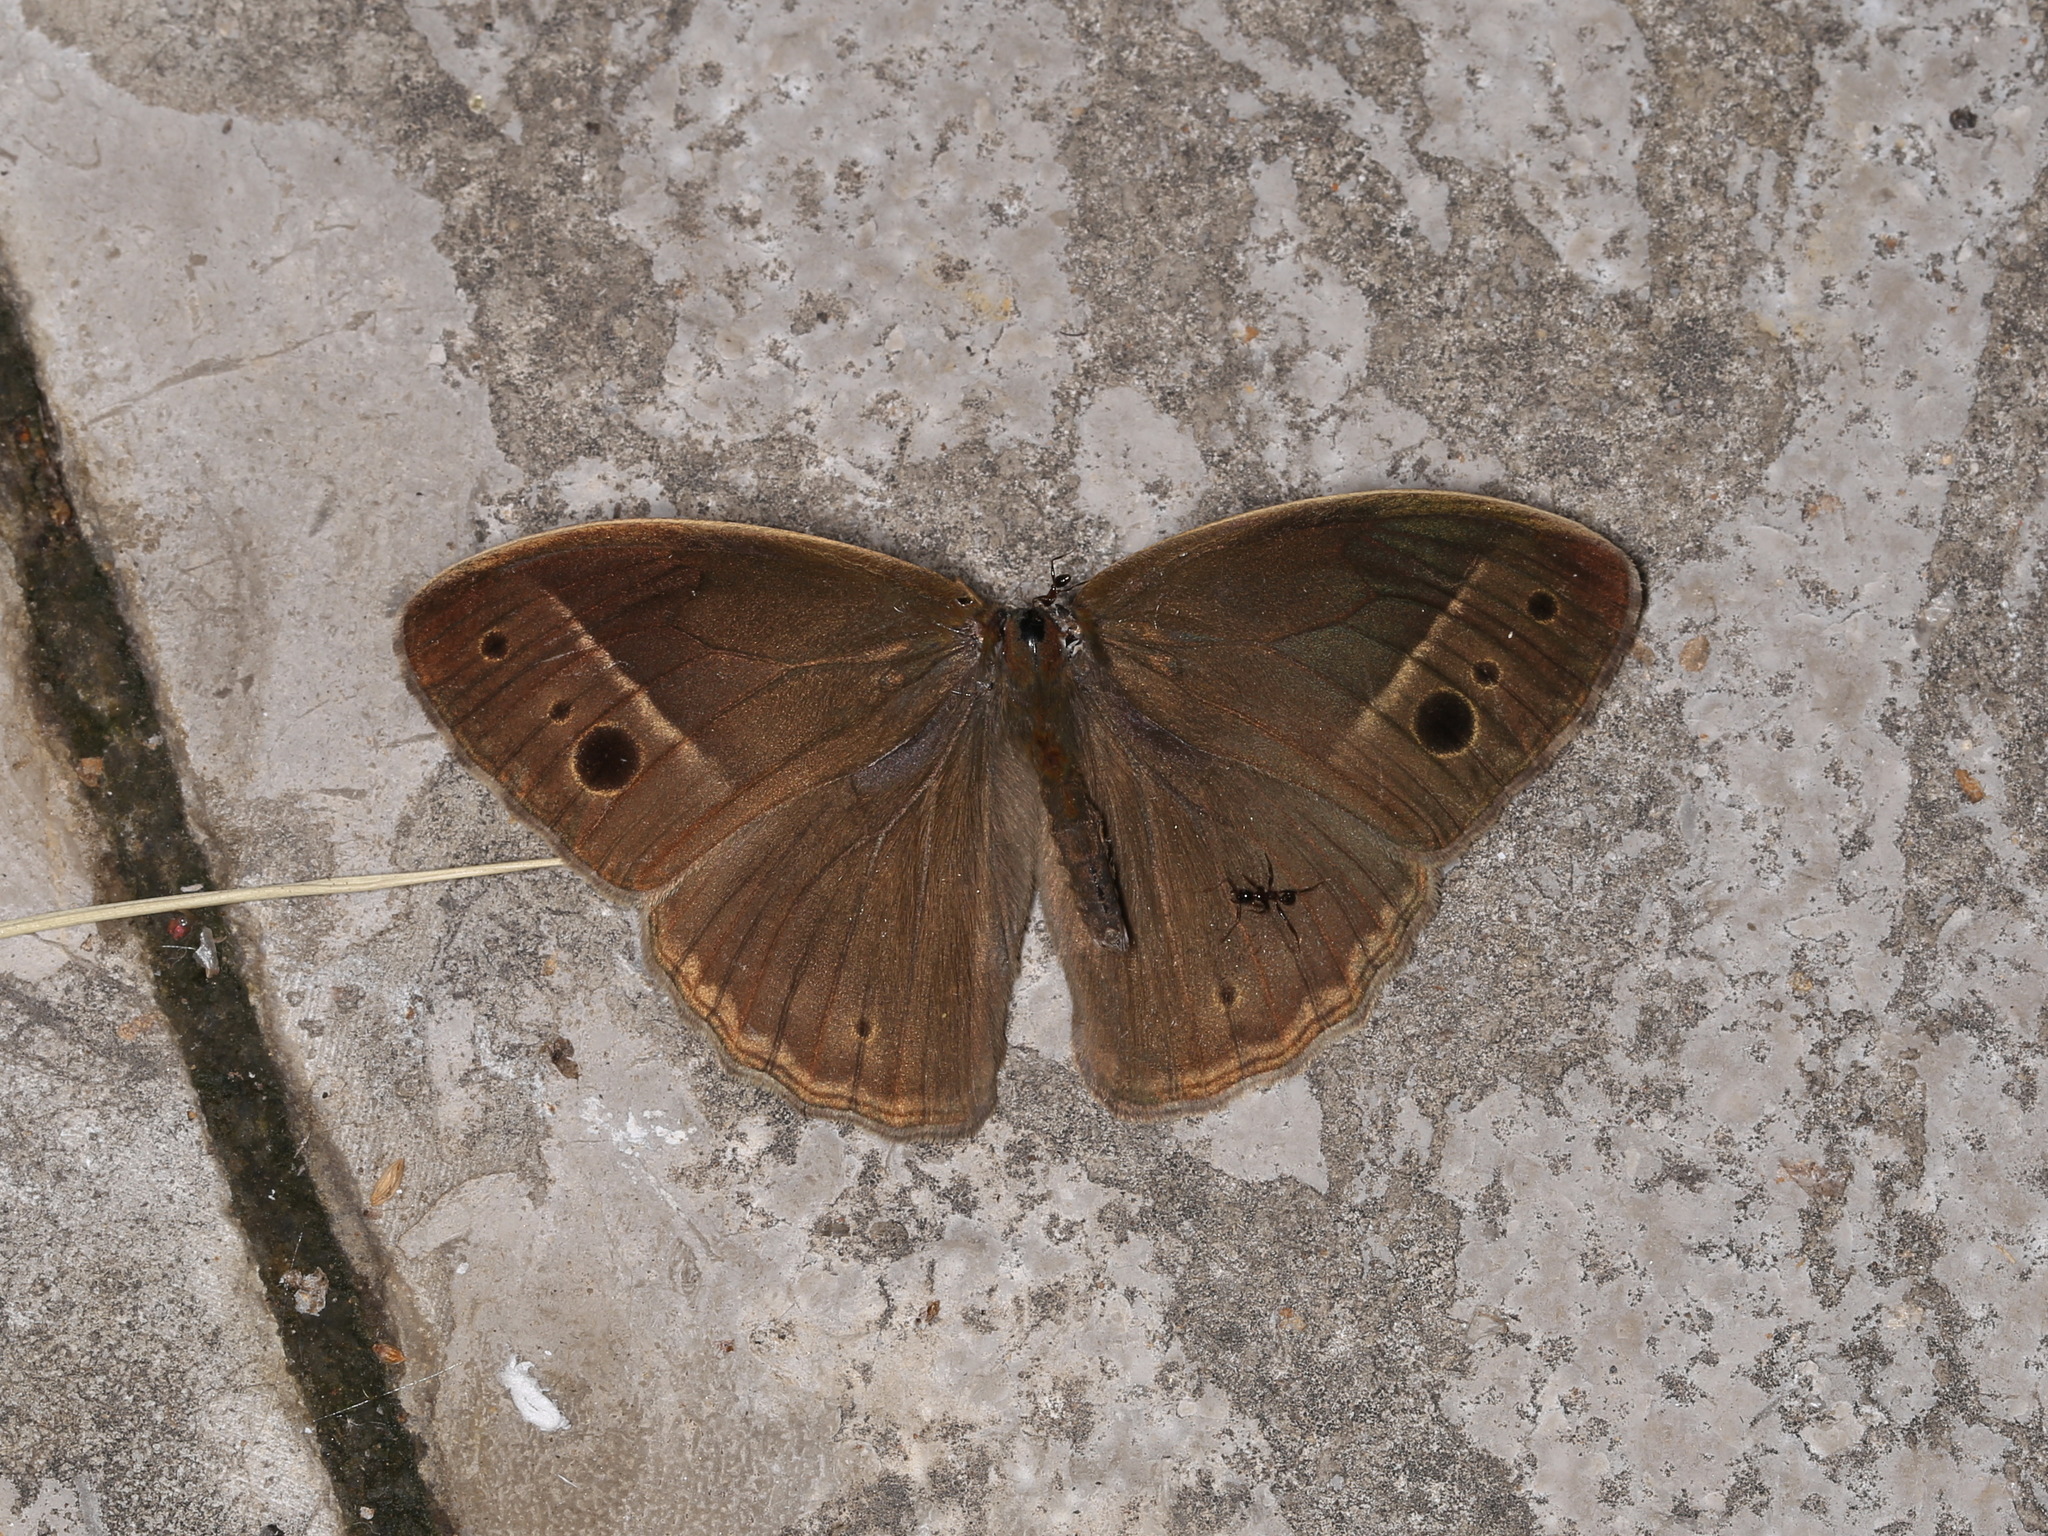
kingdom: Animalia
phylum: Arthropoda
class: Insecta
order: Lepidoptera
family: Nymphalidae
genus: Mycalesis
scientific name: Mycalesis Telinga malsara
